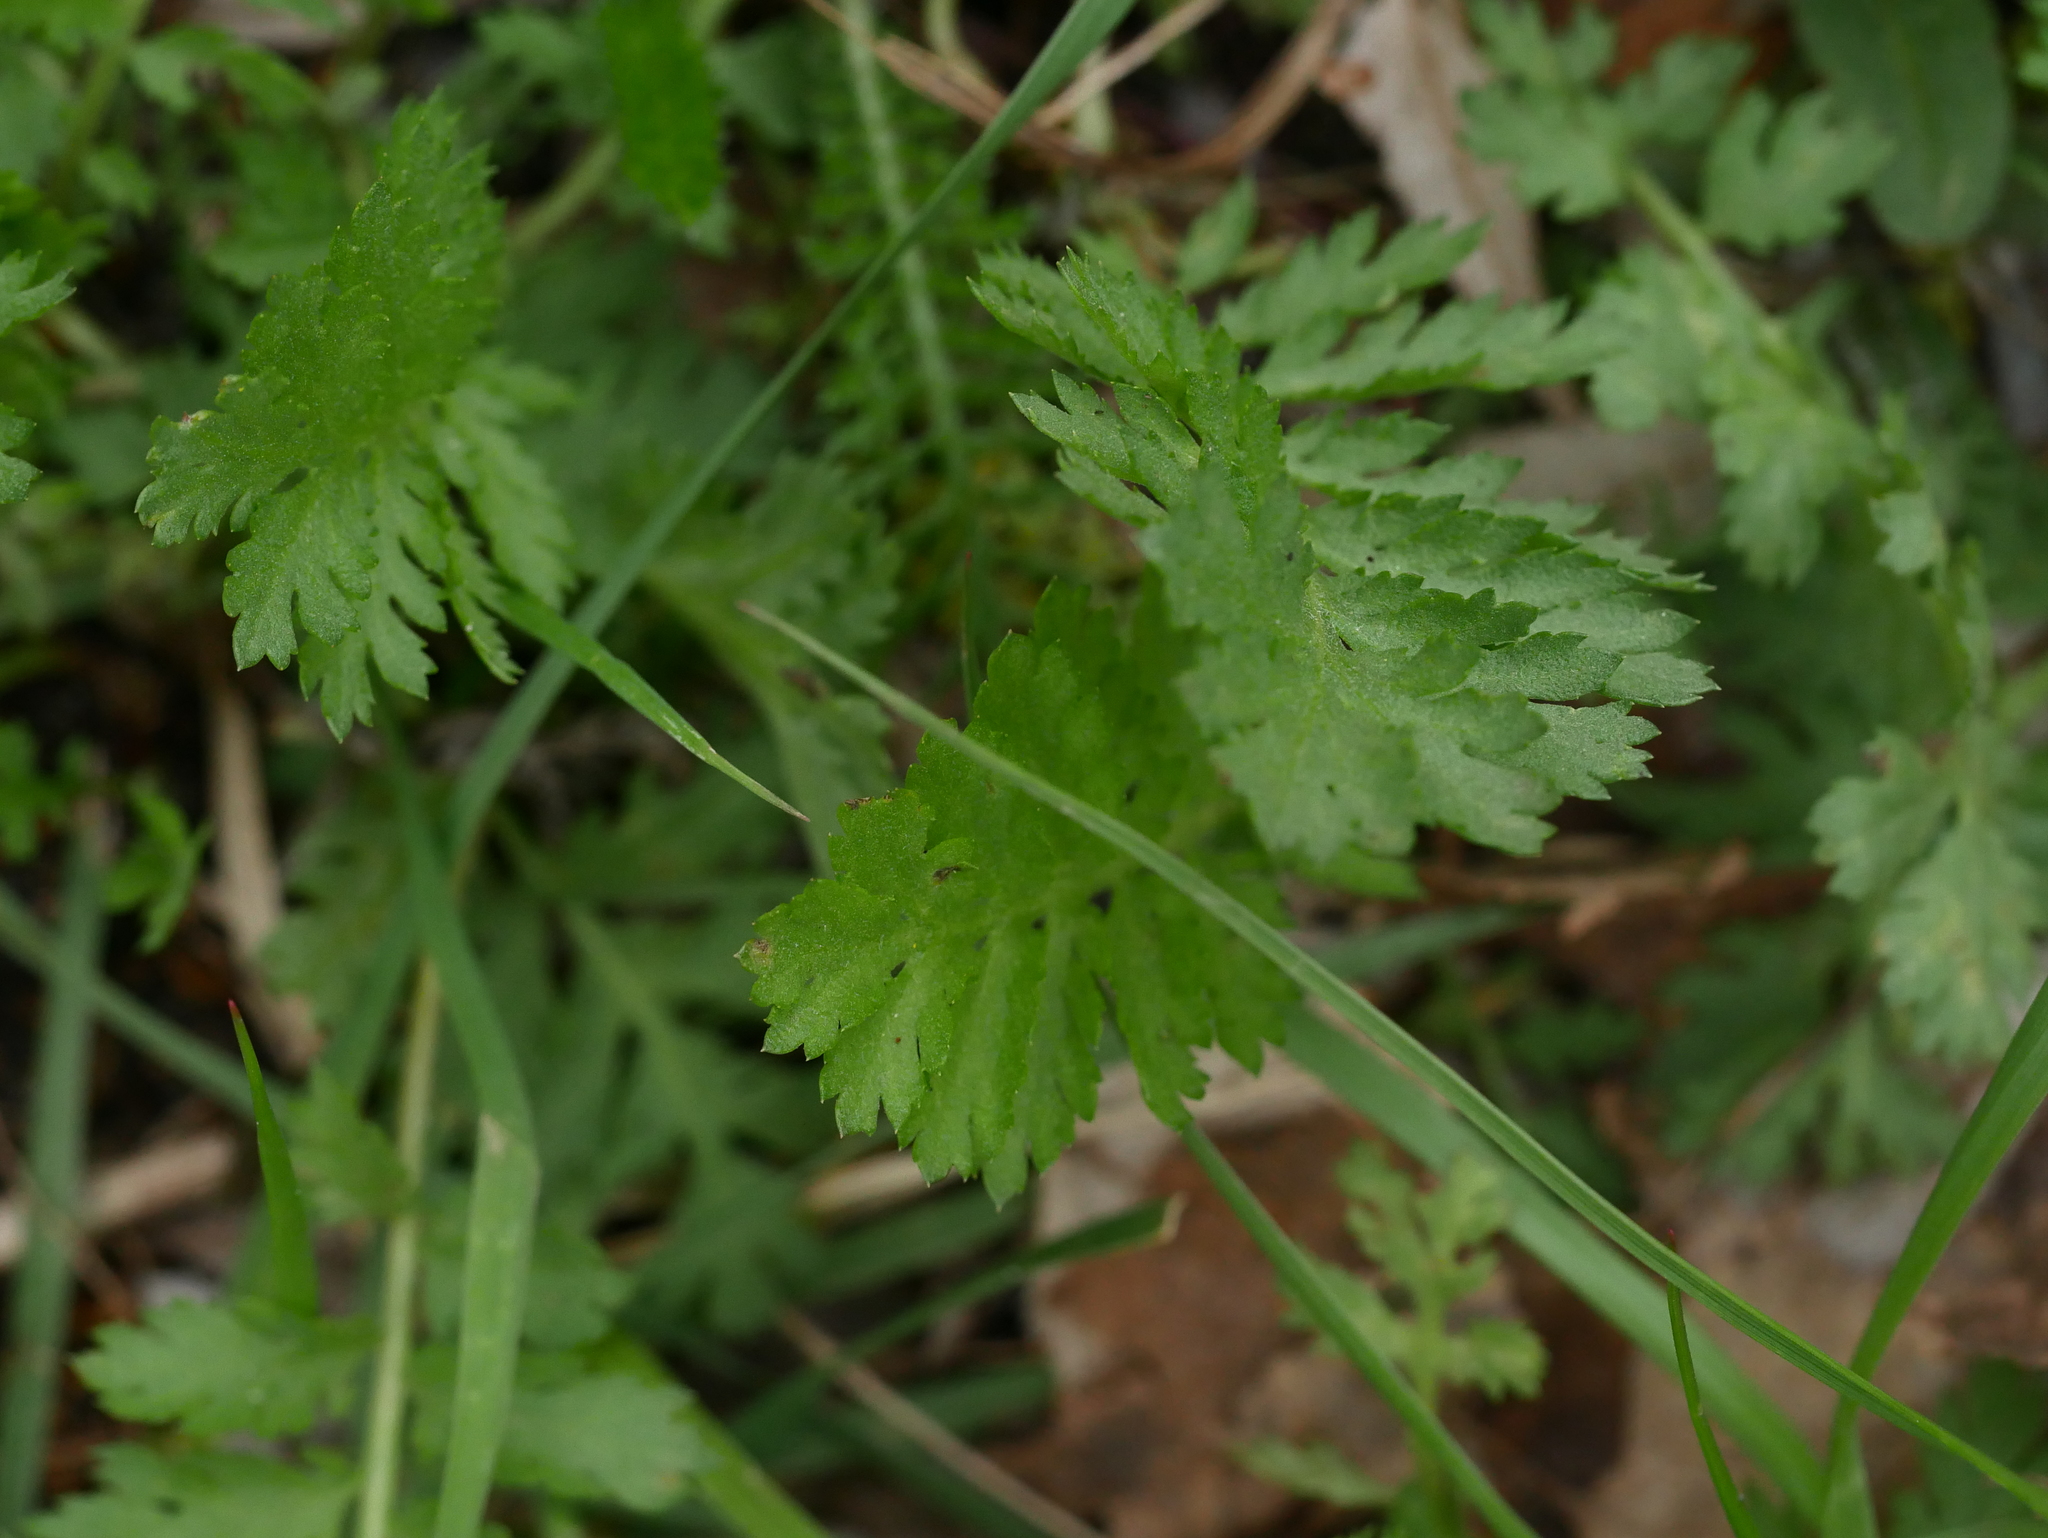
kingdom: Plantae
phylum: Tracheophyta
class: Magnoliopsida
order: Asterales
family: Asteraceae
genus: Tanacetum
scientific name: Tanacetum vulgare
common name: Common tansy
